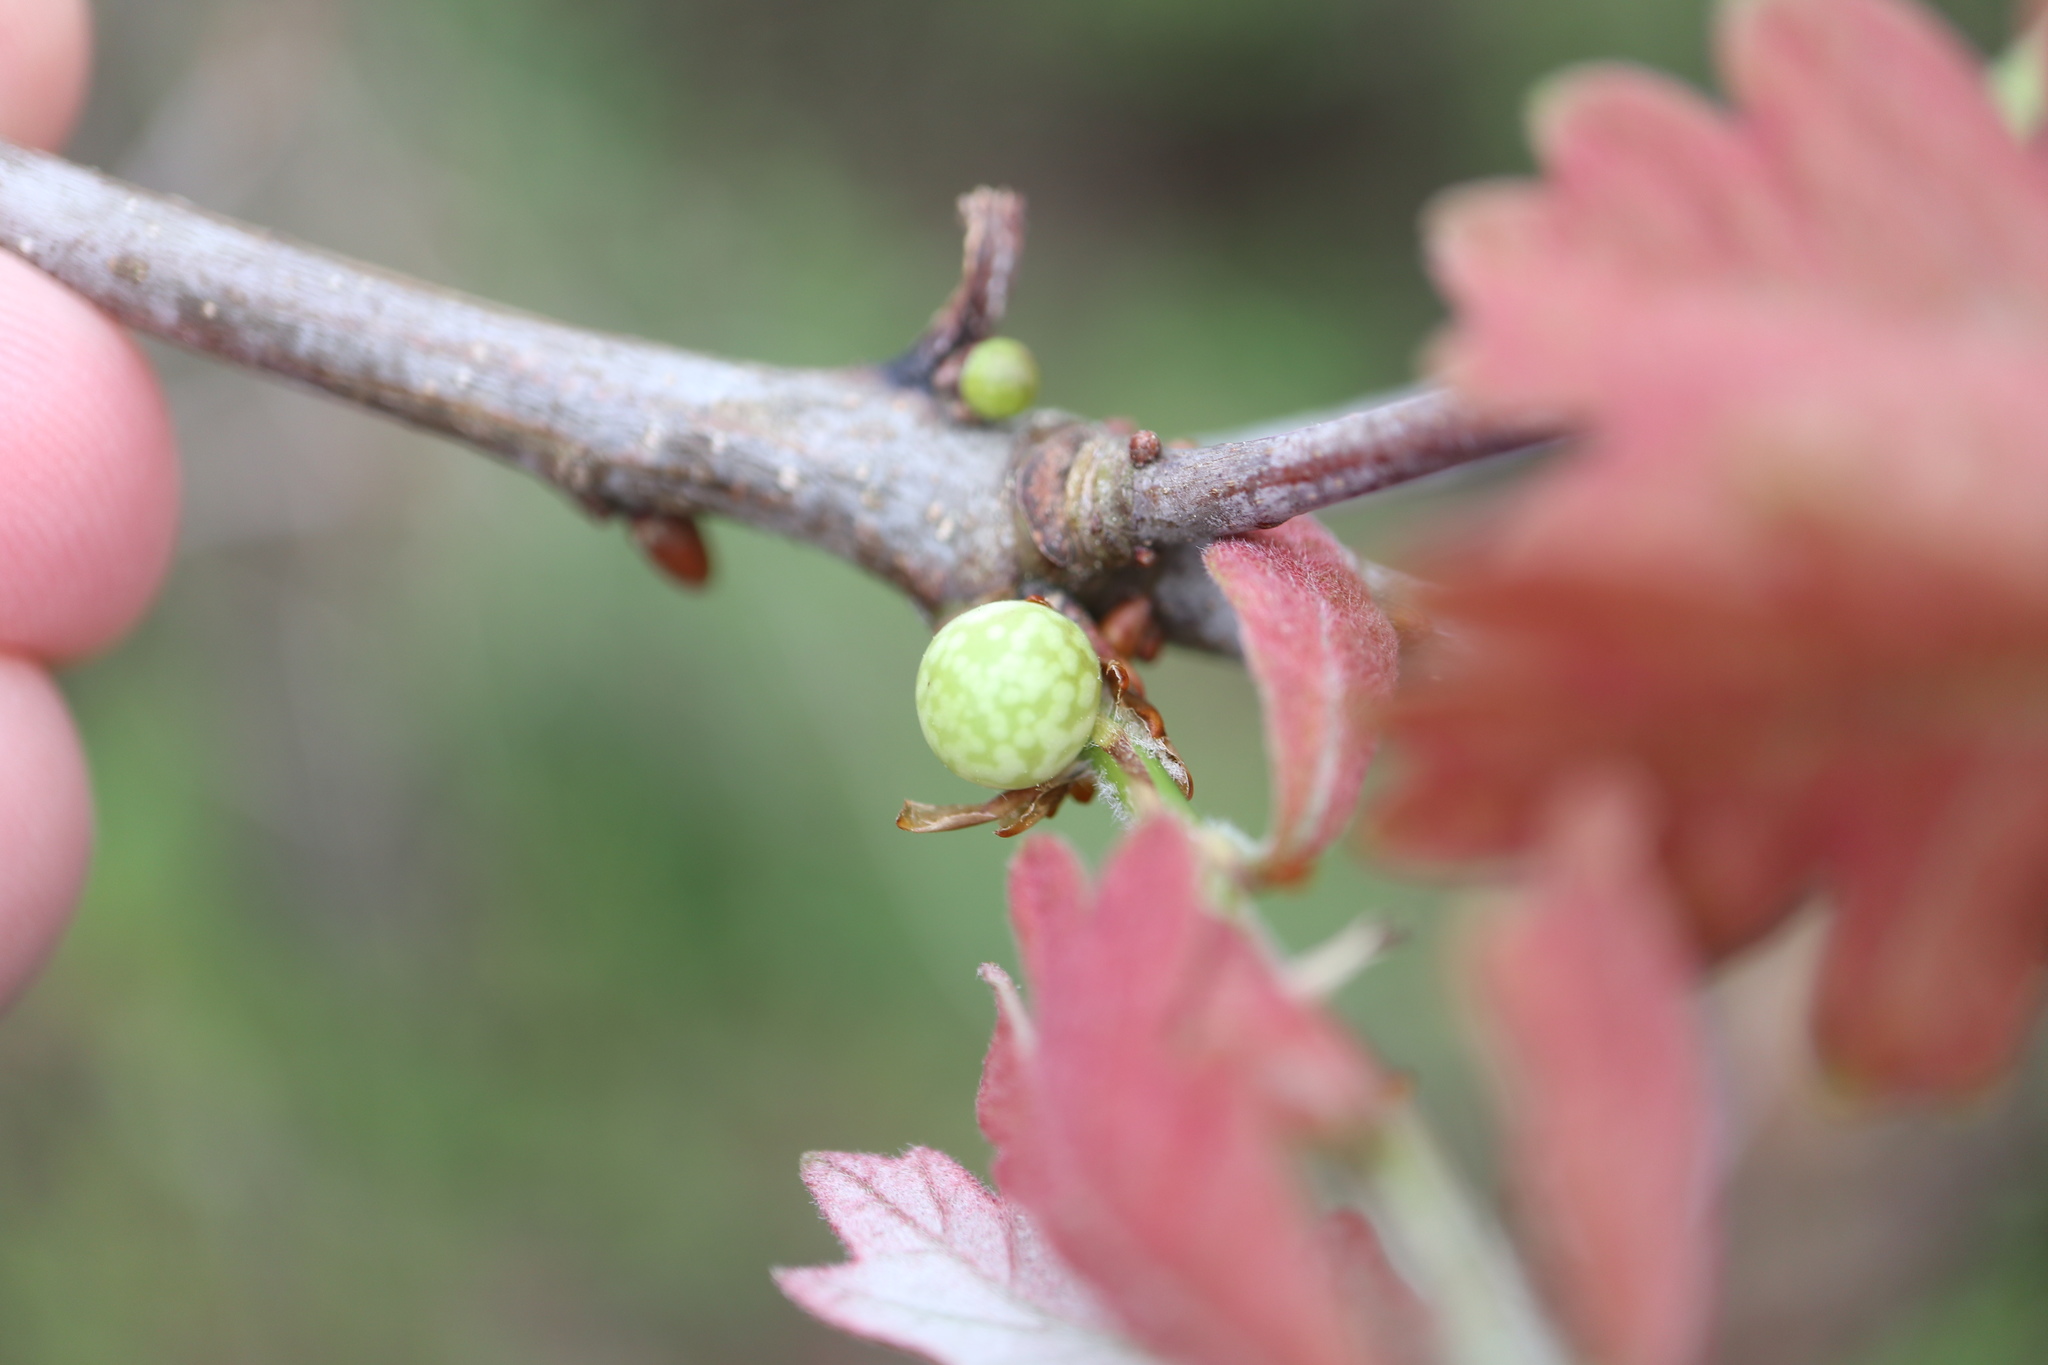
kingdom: Animalia
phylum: Arthropoda
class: Insecta
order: Hymenoptera
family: Cynipidae
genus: Andricus
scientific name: Andricus
